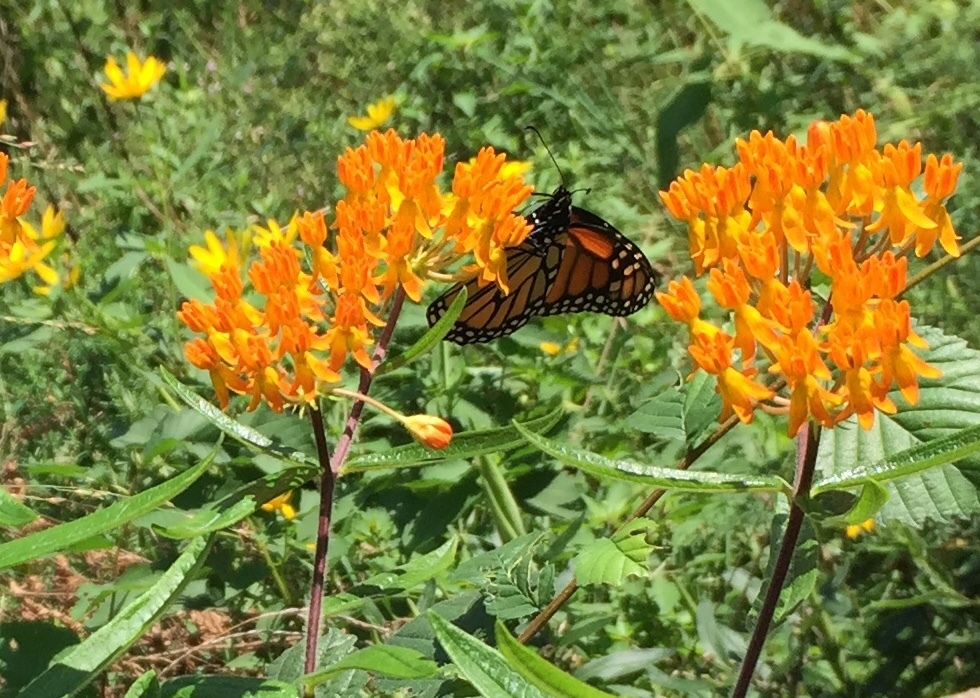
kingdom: Animalia
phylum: Arthropoda
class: Insecta
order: Lepidoptera
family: Nymphalidae
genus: Danaus
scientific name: Danaus plexippus
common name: Monarch
